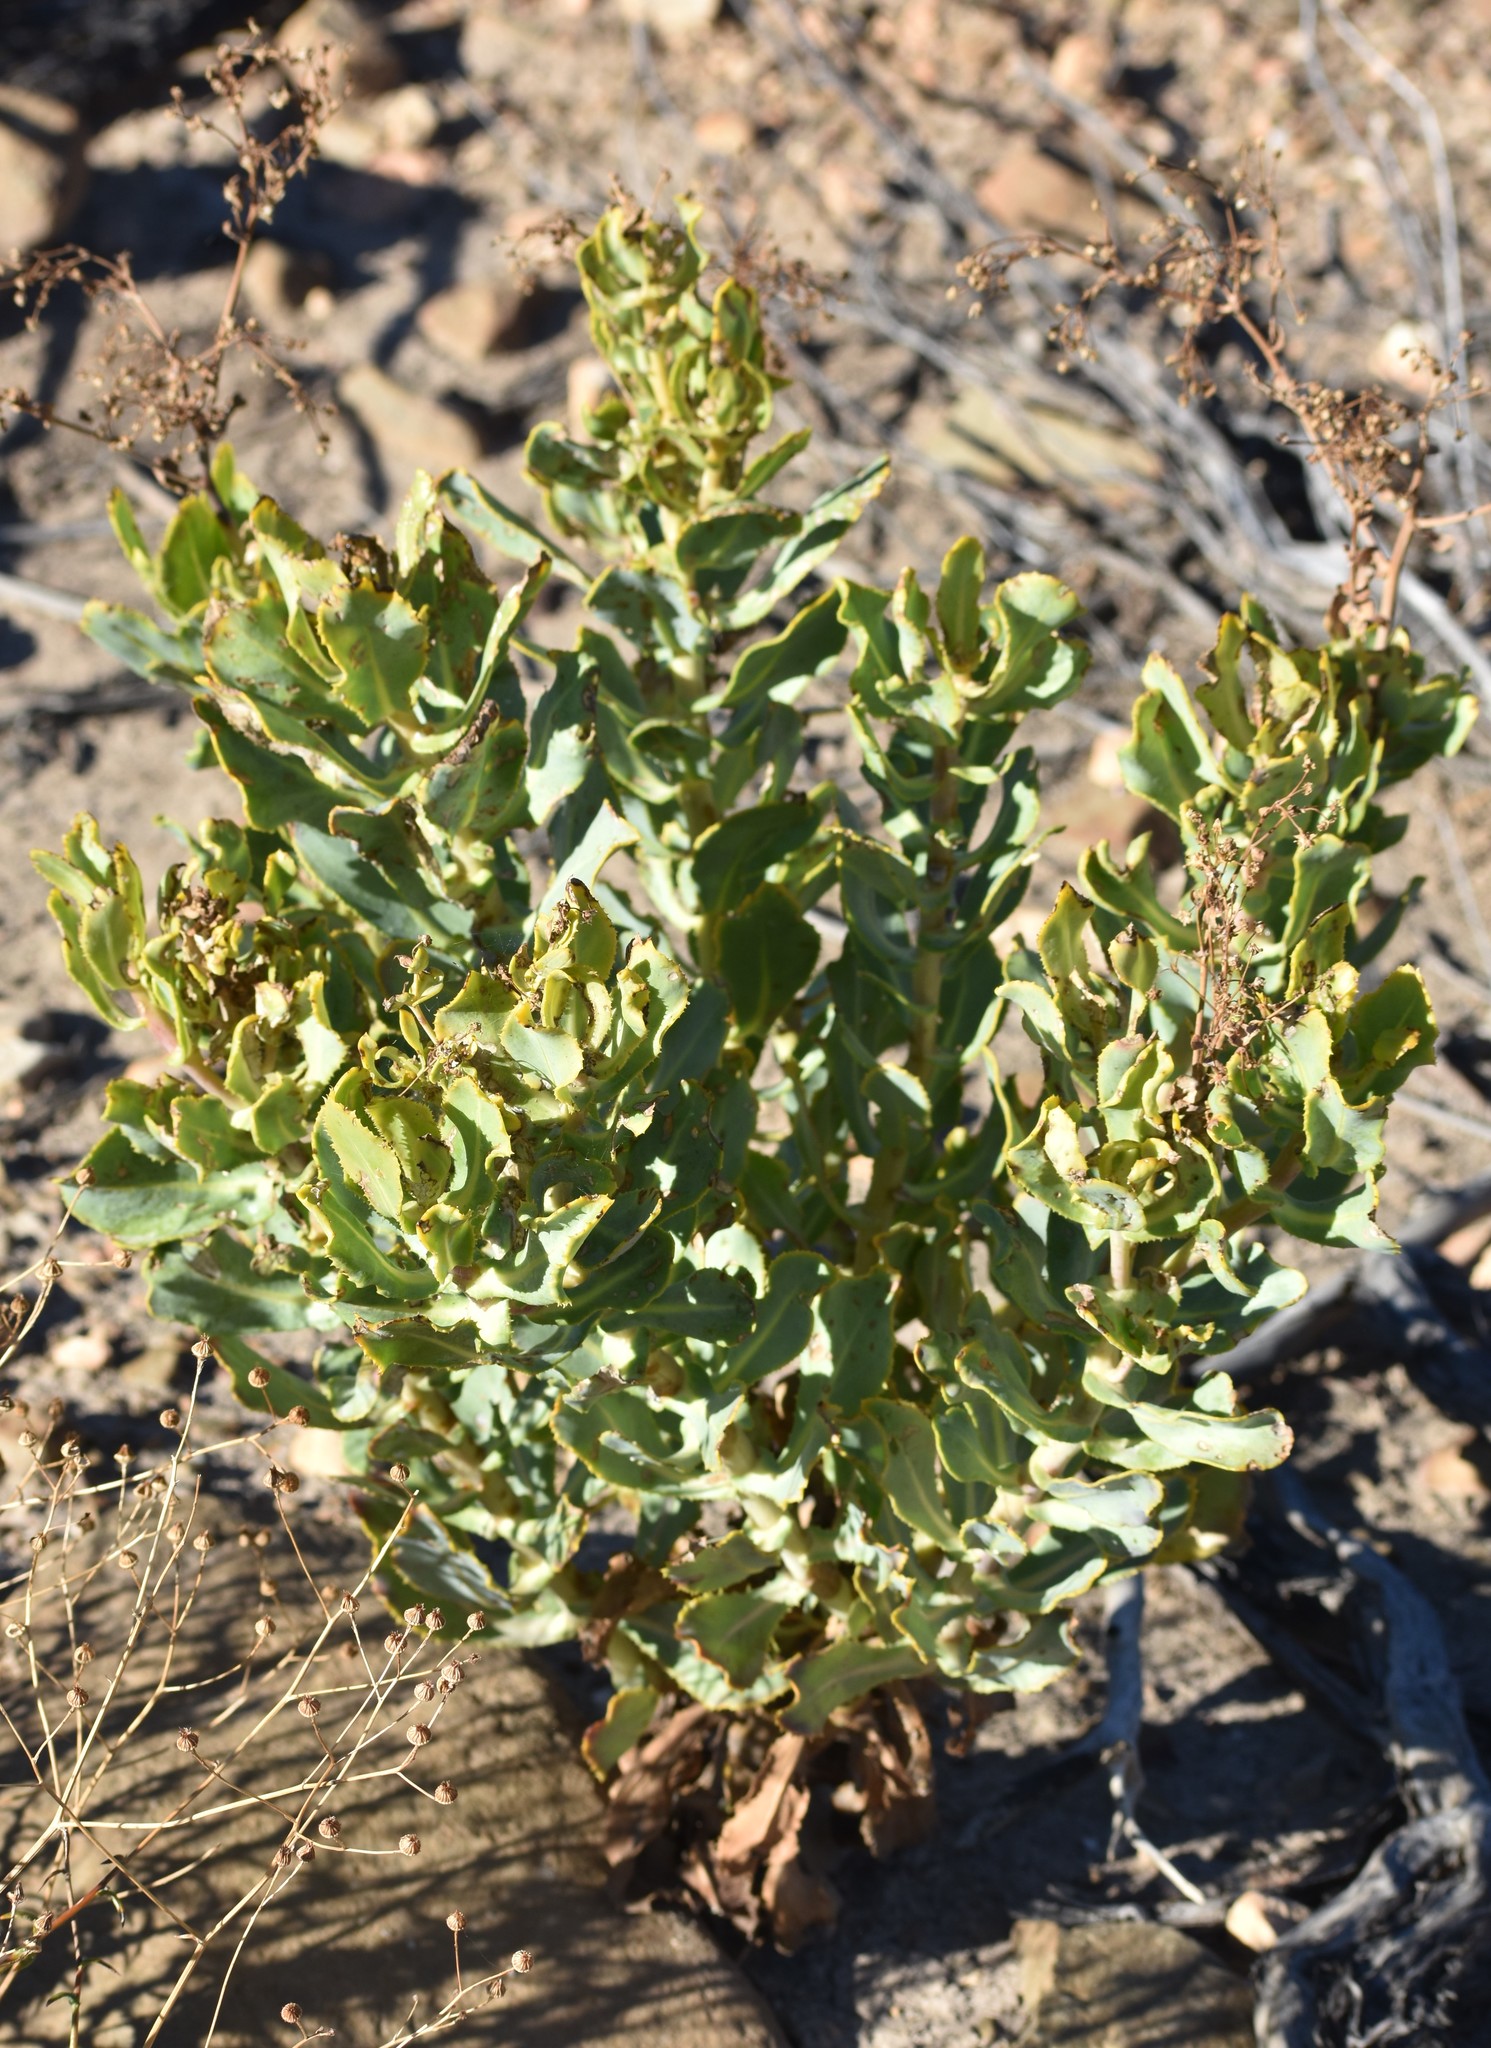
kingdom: Plantae
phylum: Tracheophyta
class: Magnoliopsida
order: Asterales
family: Asteraceae
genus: Othonna
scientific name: Othonna parviflora
